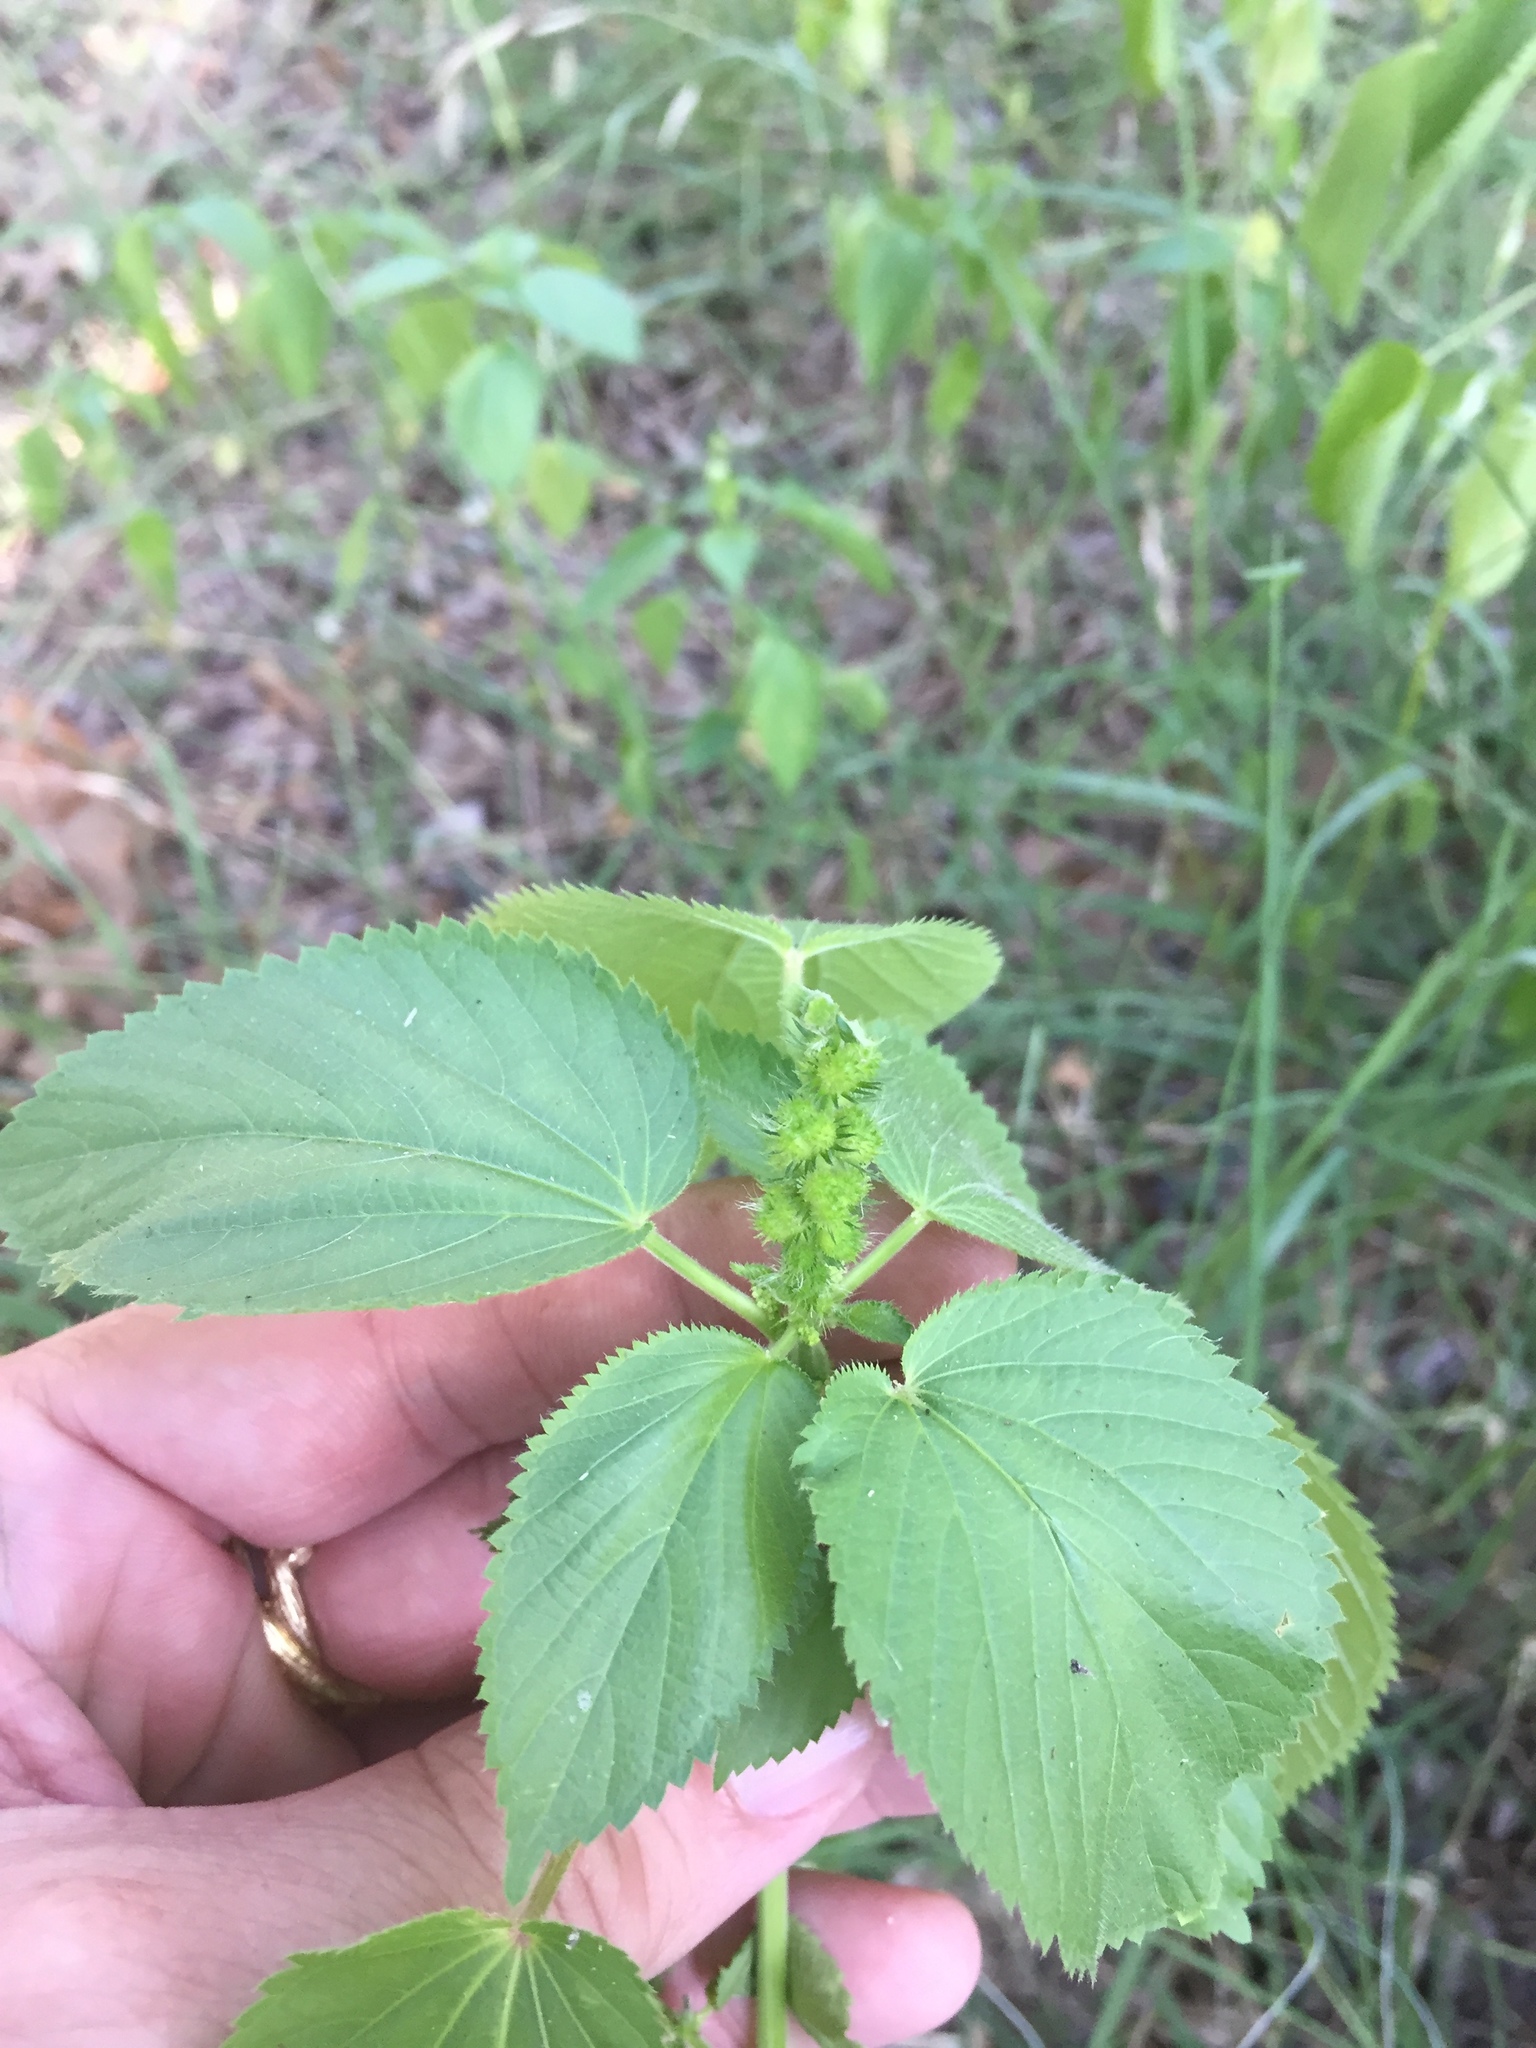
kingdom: Plantae
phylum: Tracheophyta
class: Magnoliopsida
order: Malpighiales
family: Euphorbiaceae
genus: Acalypha
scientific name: Acalypha ostryifolia
